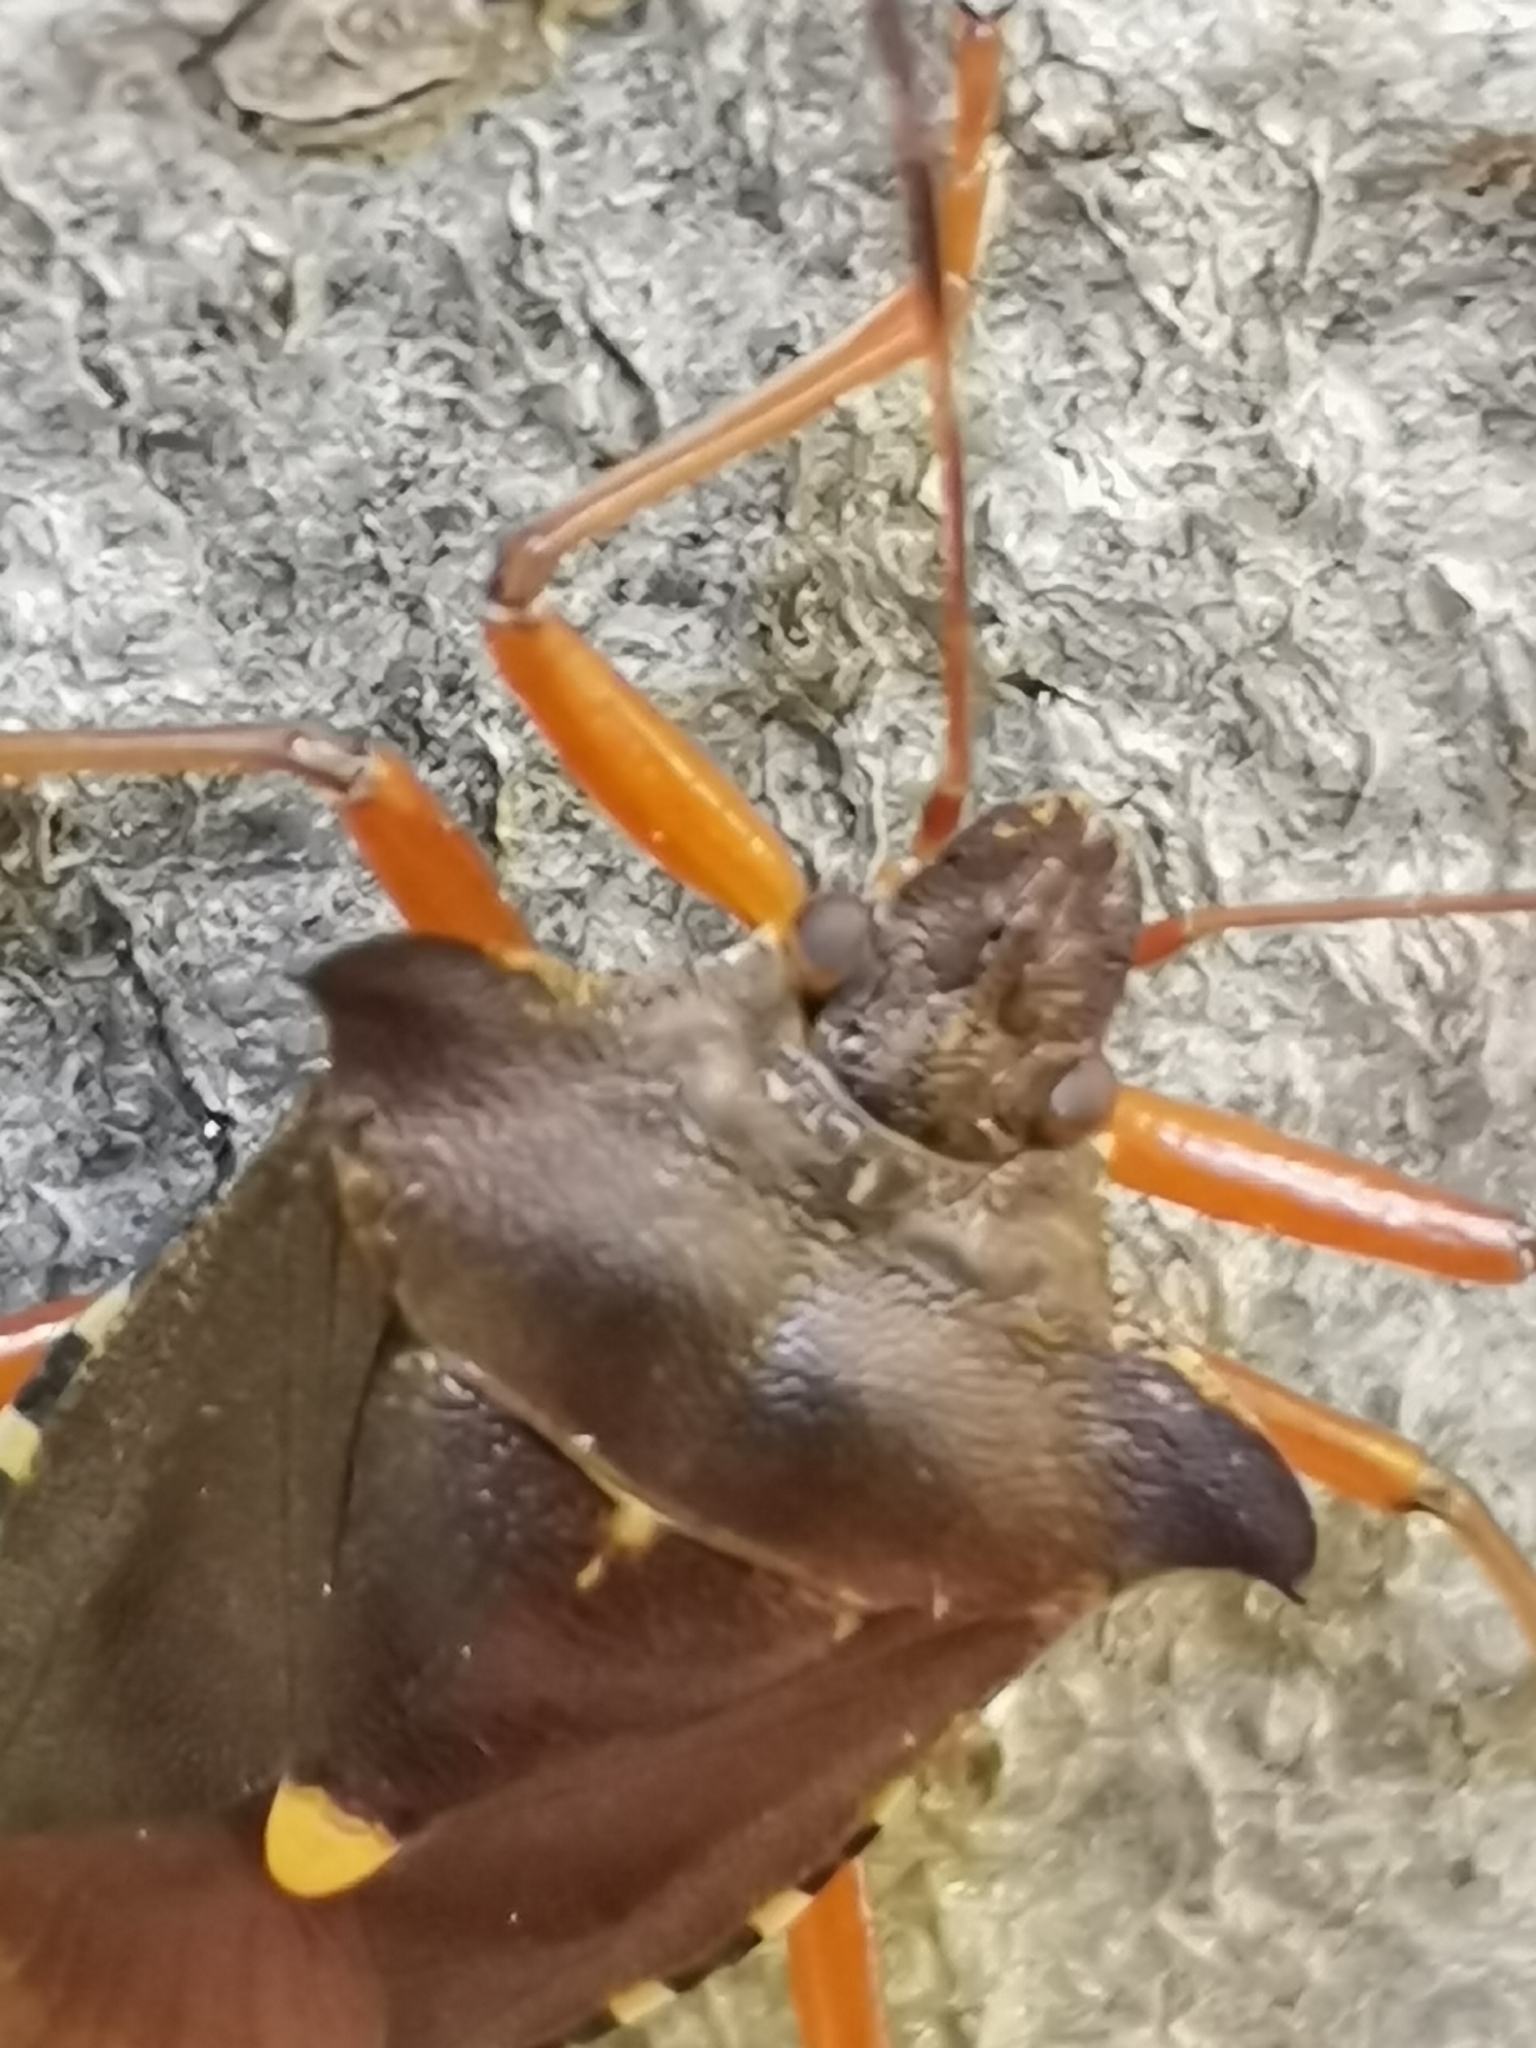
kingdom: Animalia
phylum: Arthropoda
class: Insecta
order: Hemiptera
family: Pentatomidae
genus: Pentatoma
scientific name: Pentatoma rufipes
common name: Forest bug
